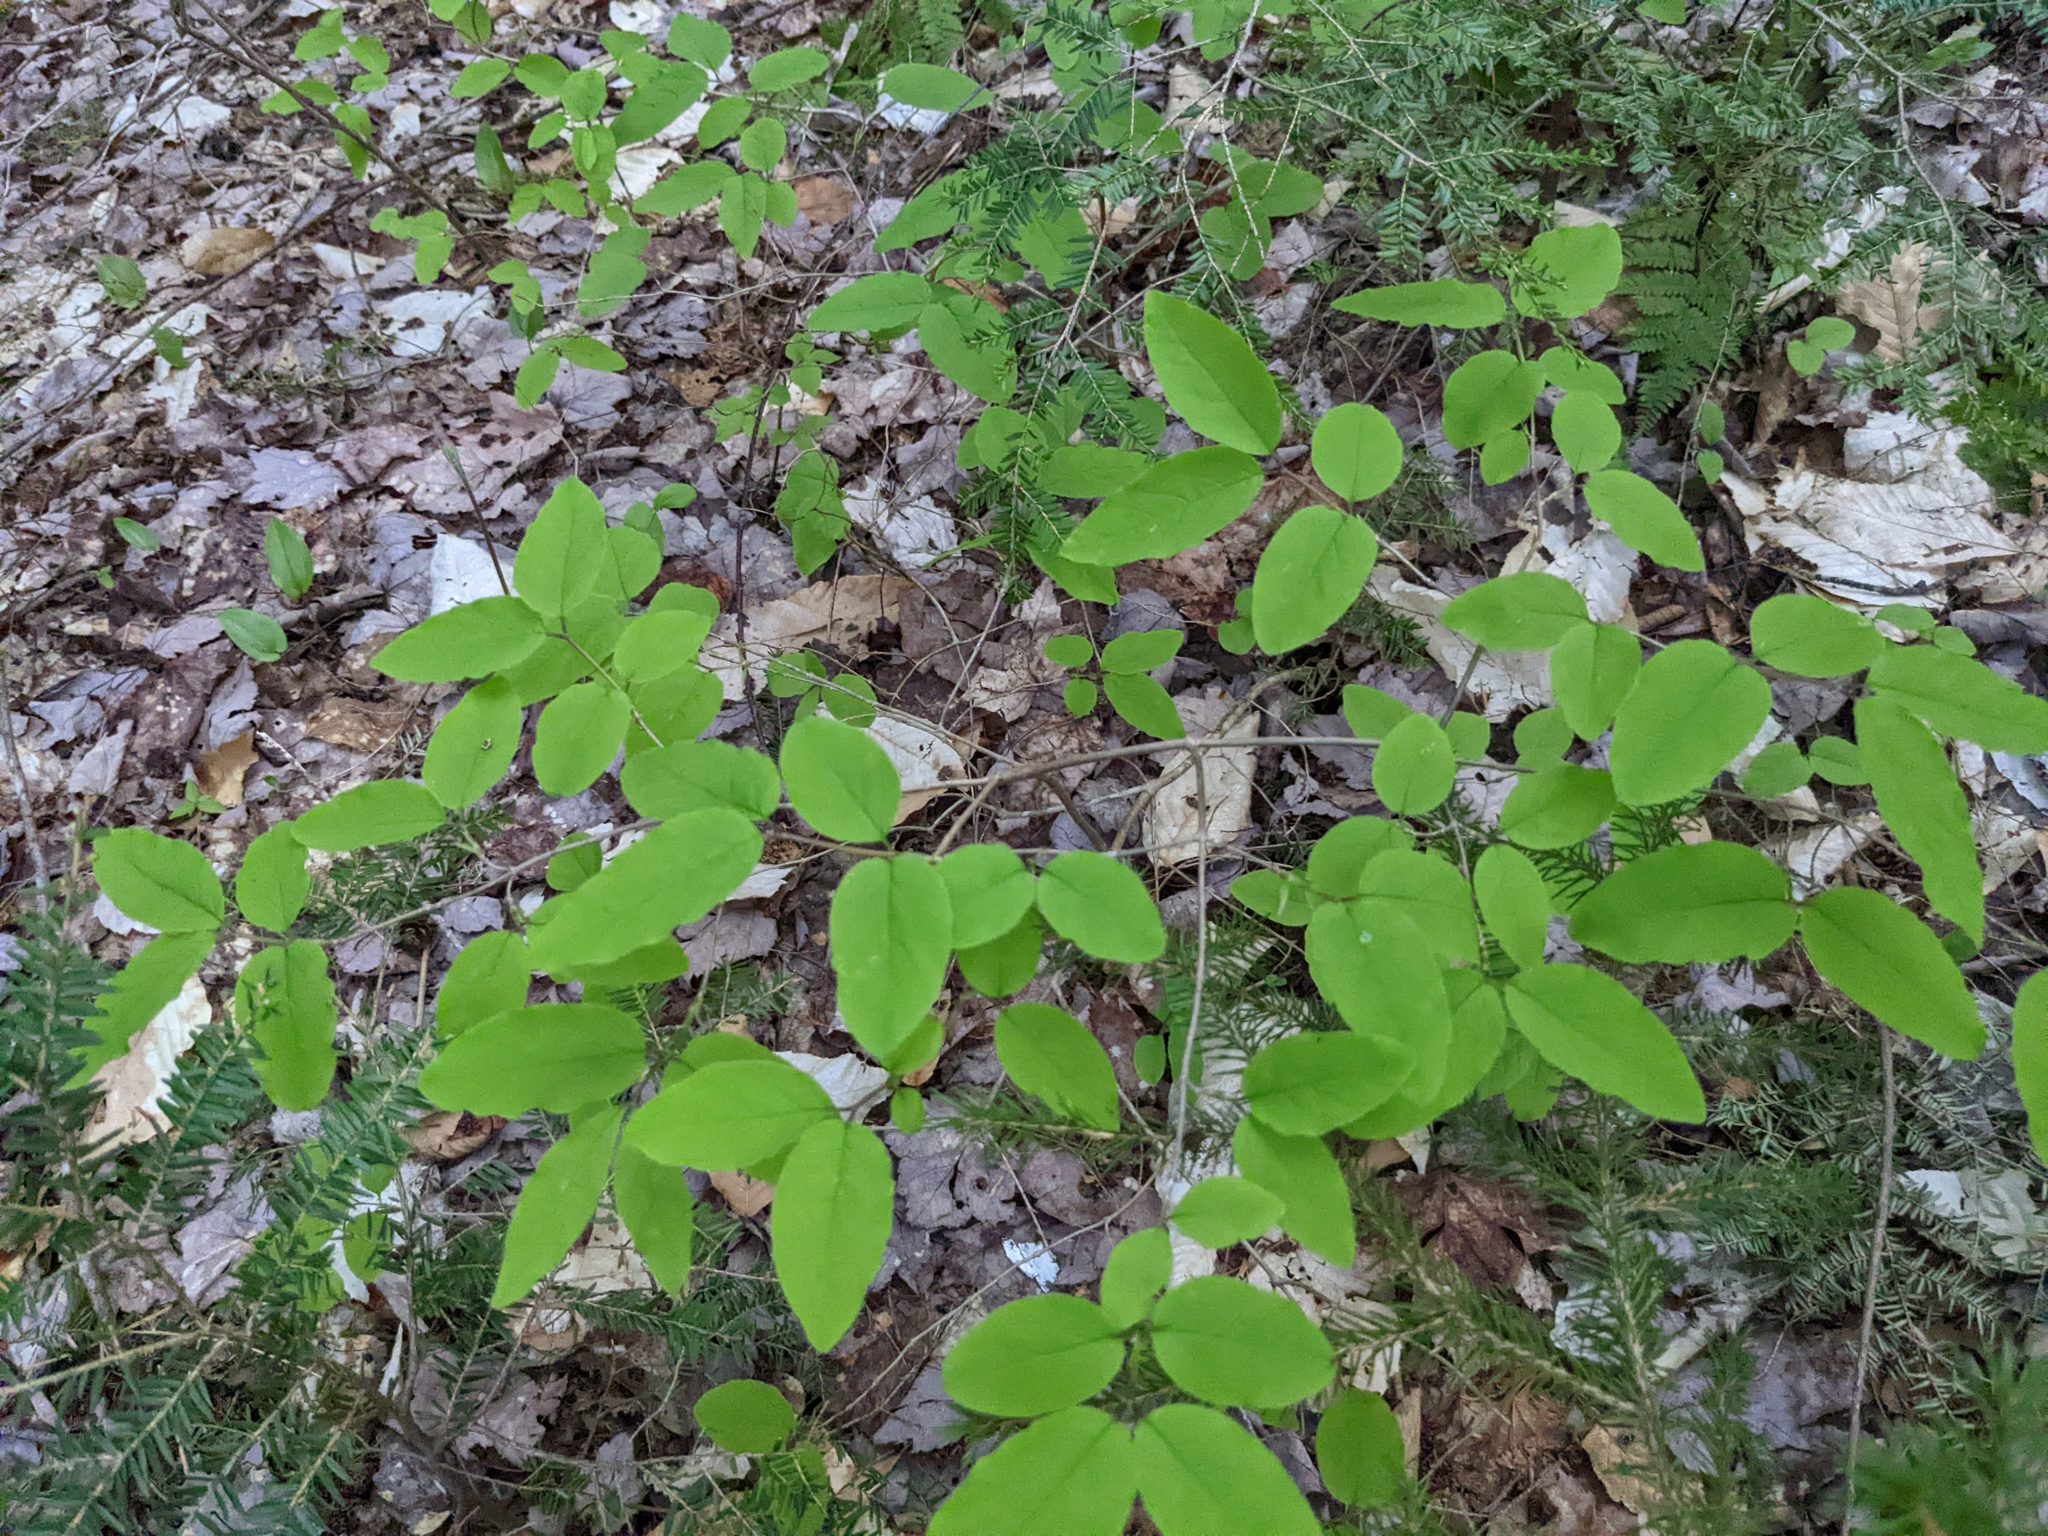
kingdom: Plantae
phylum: Tracheophyta
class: Magnoliopsida
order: Dipsacales
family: Caprifoliaceae
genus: Lonicera
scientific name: Lonicera canadensis
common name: American fly-honeysuckle
